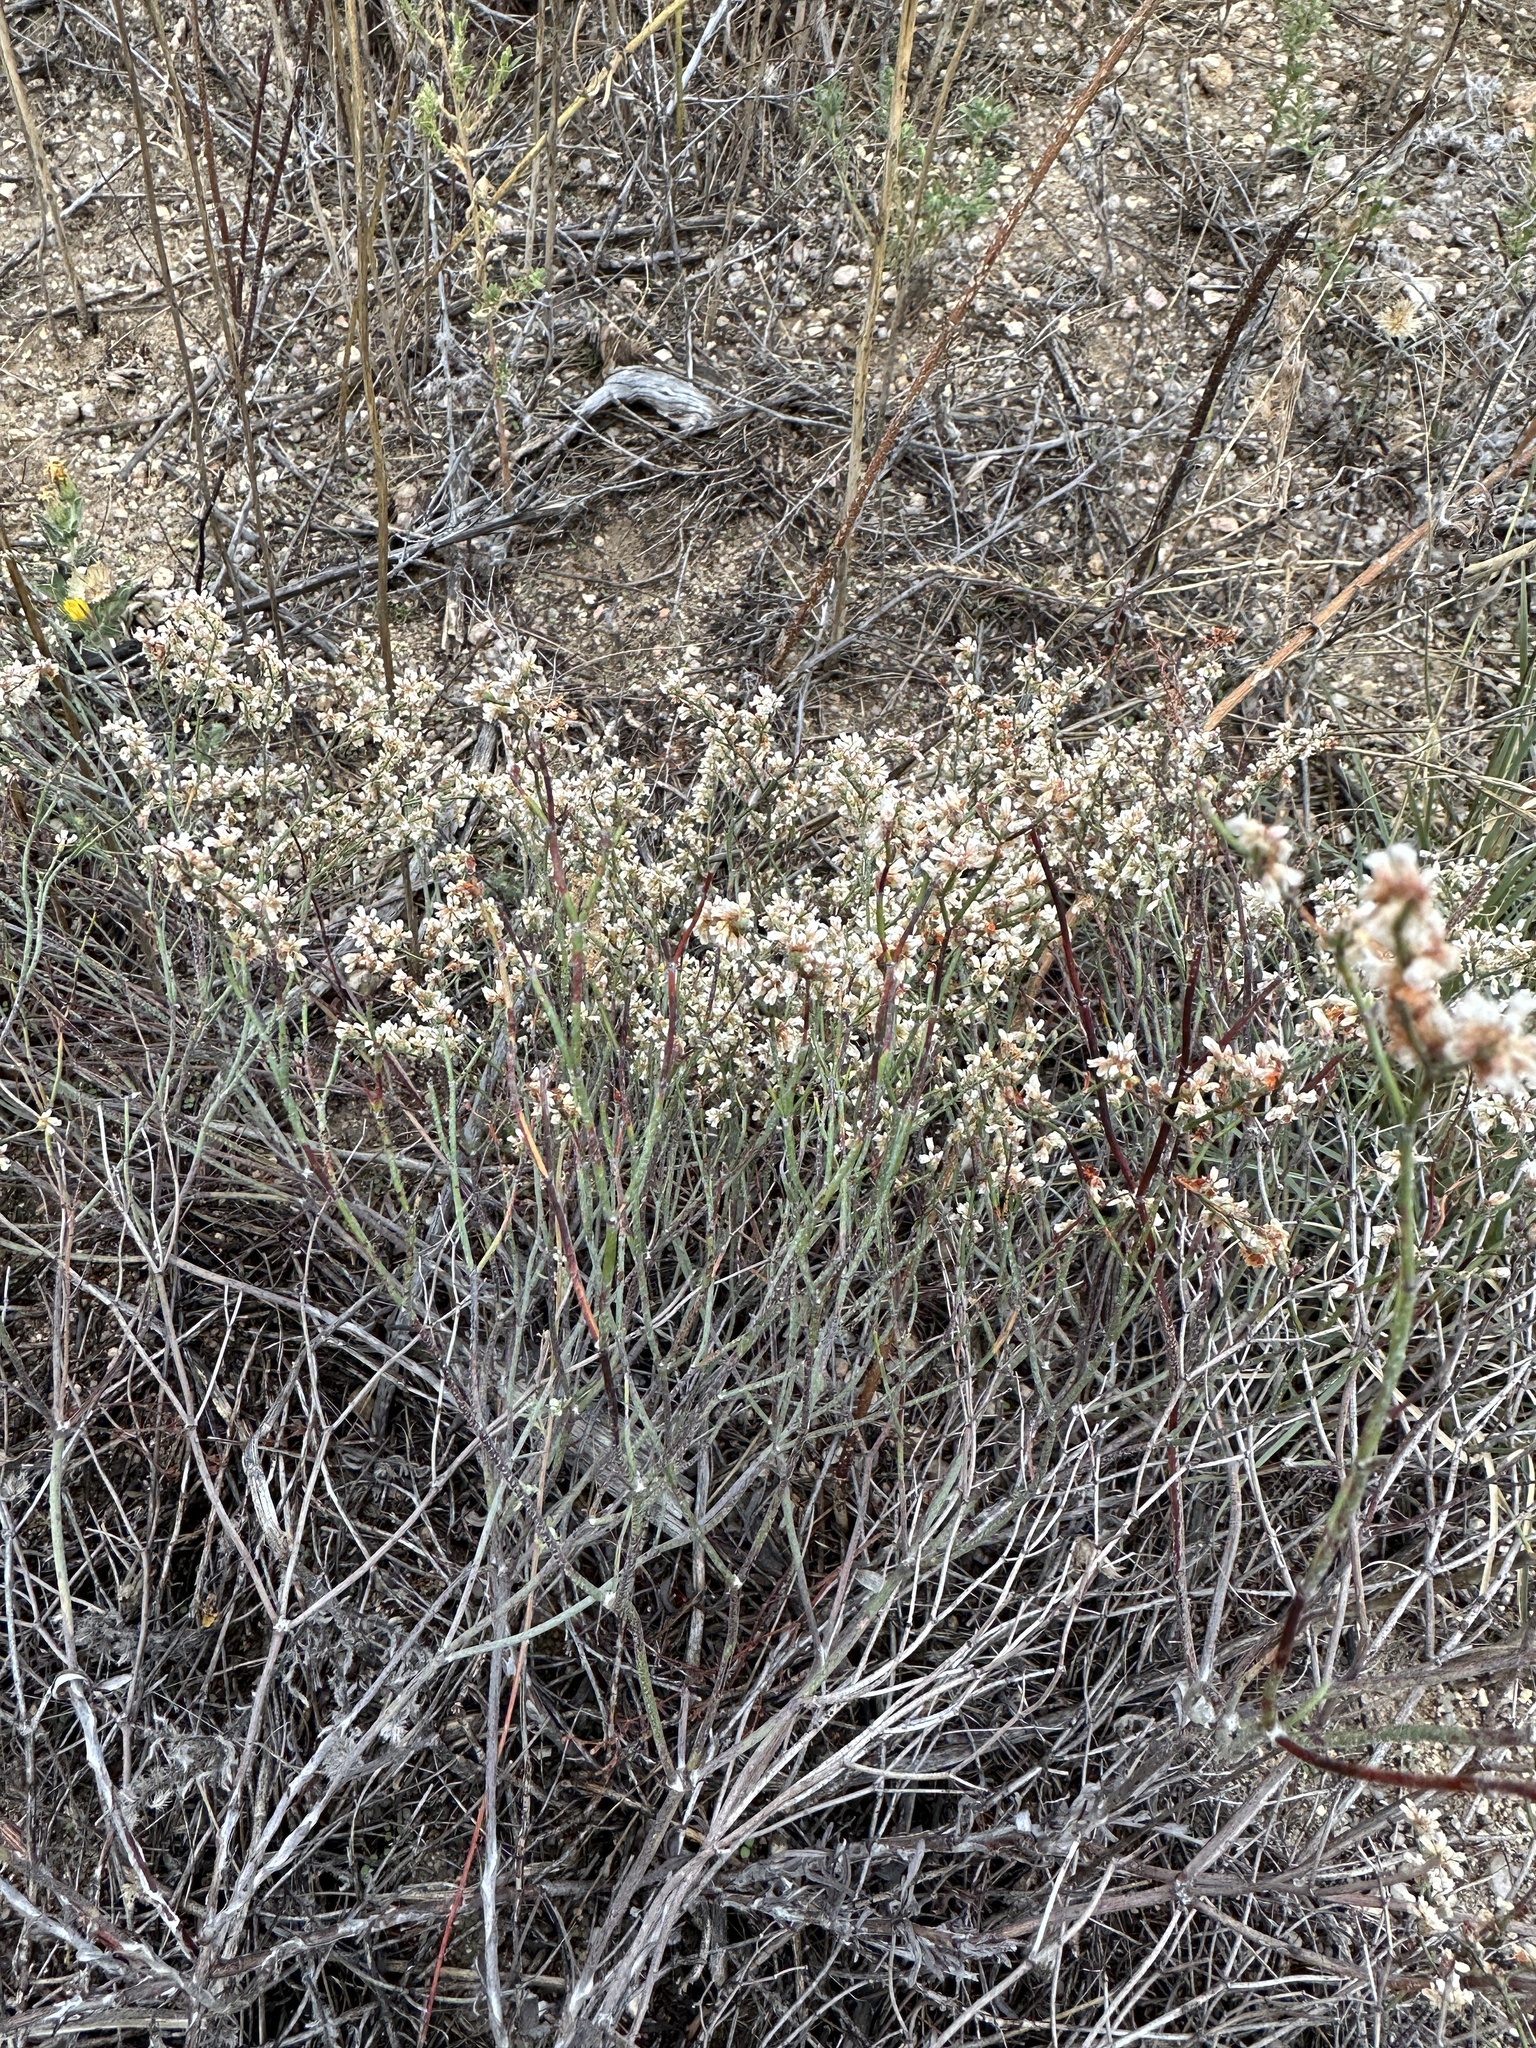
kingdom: Plantae
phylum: Tracheophyta
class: Magnoliopsida
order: Caryophyllales
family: Polygonaceae
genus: Eriogonum
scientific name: Eriogonum effusum
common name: Spreading wild buckwheat
